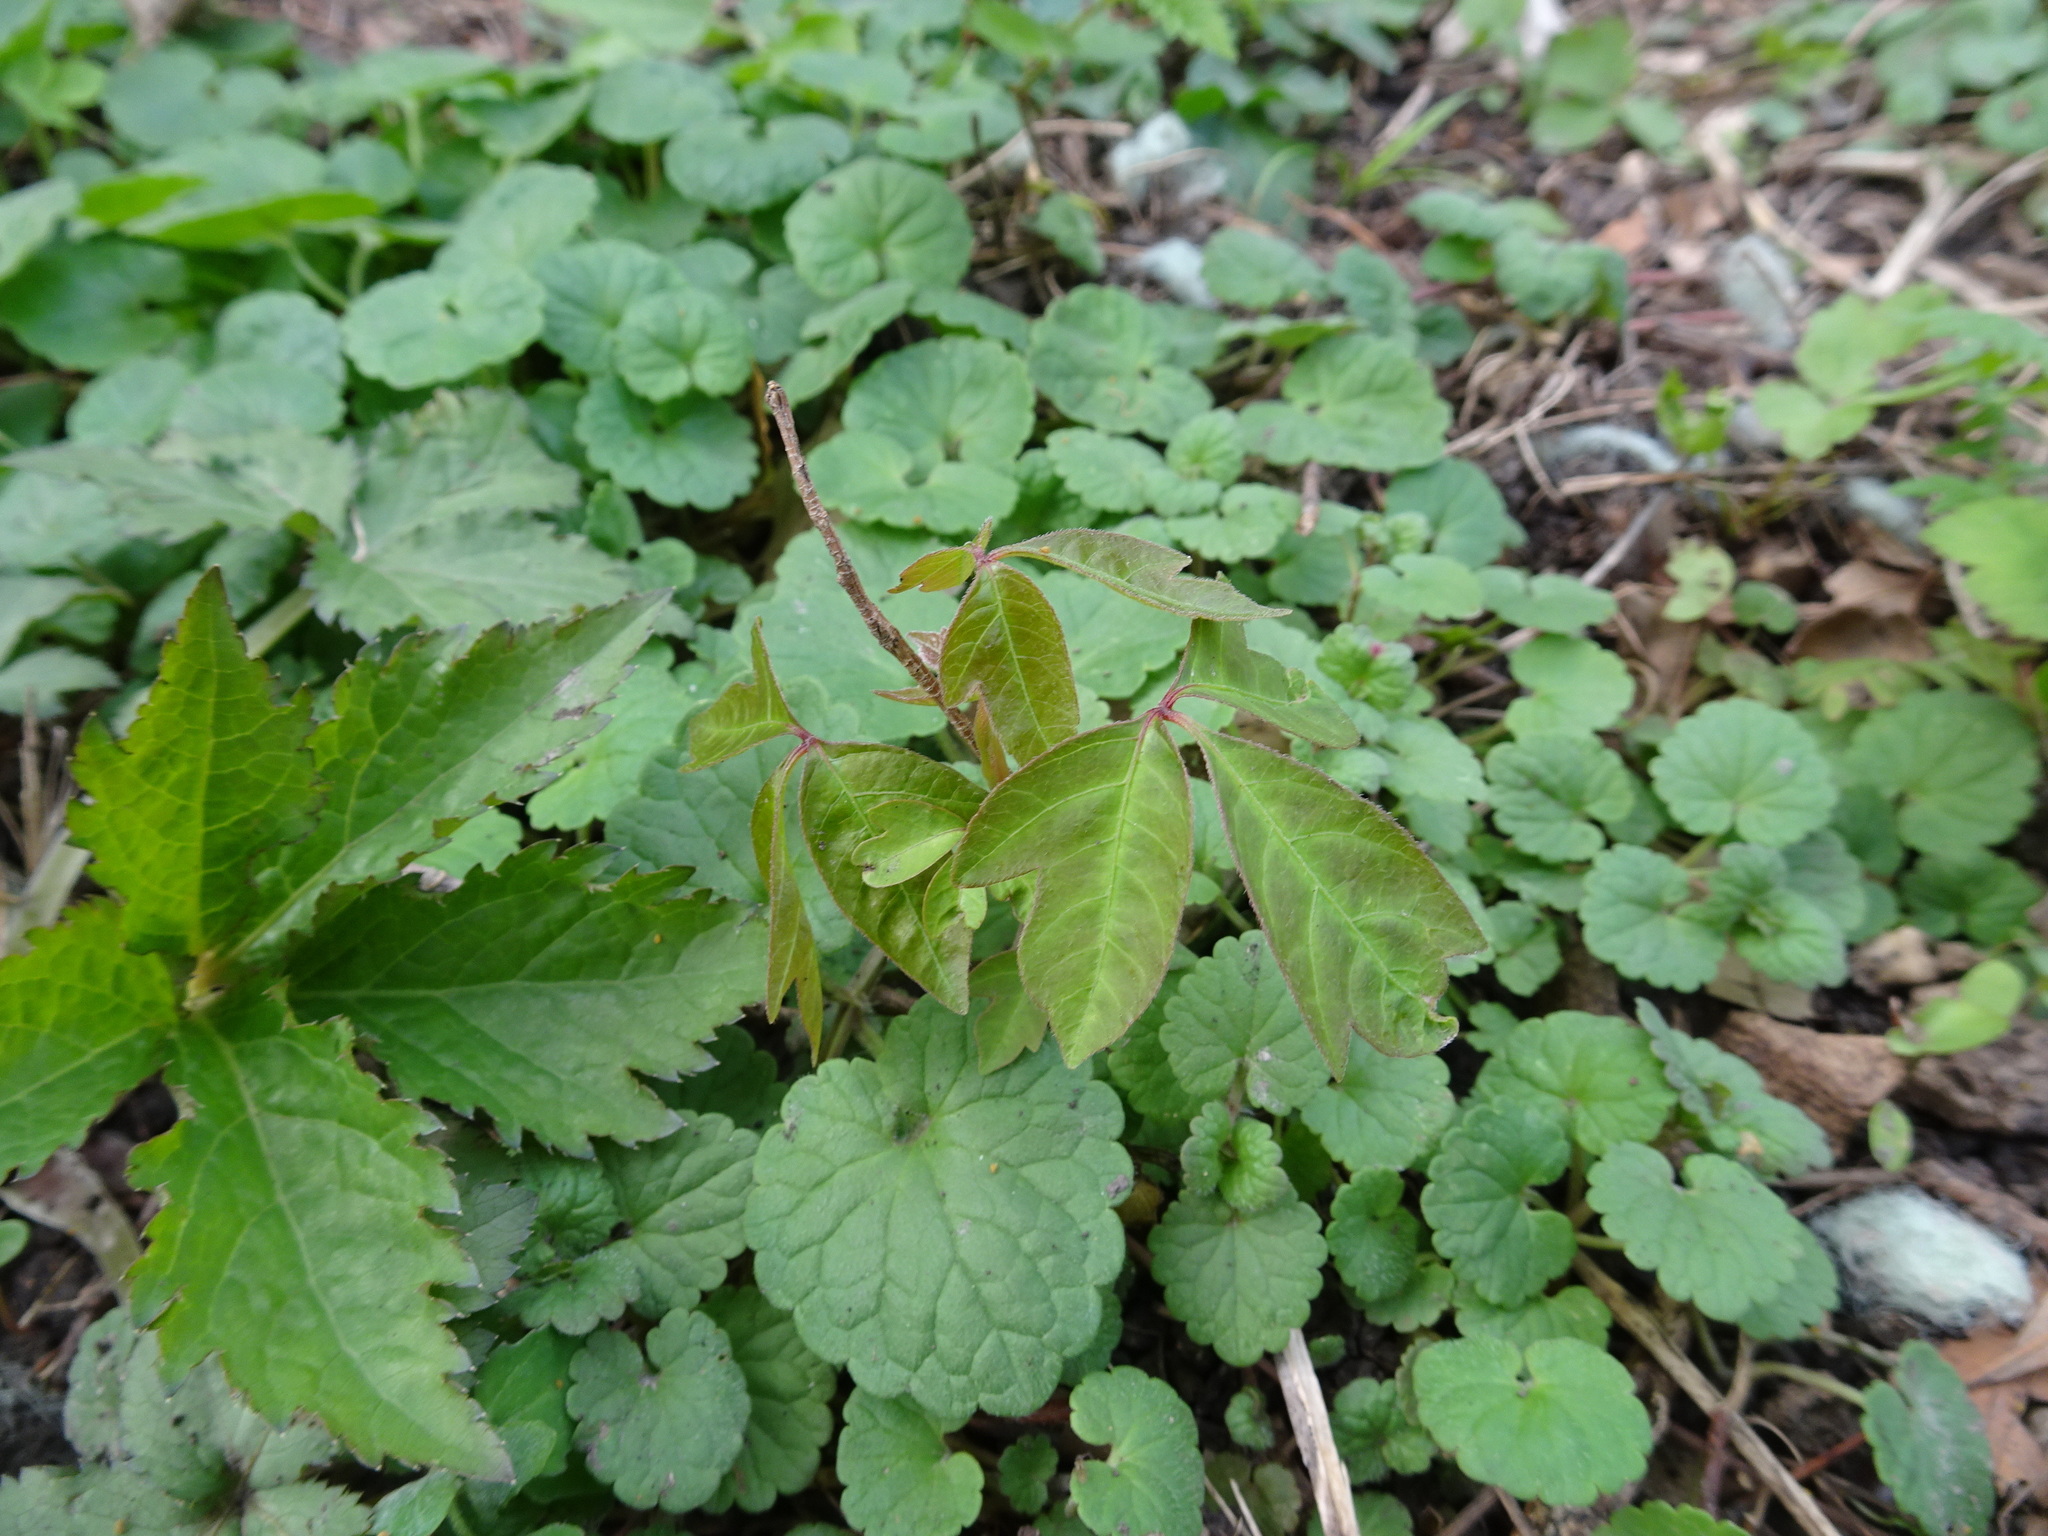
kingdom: Plantae
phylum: Tracheophyta
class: Magnoliopsida
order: Sapindales
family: Anacardiaceae
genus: Toxicodendron
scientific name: Toxicodendron radicans
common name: Poison ivy
